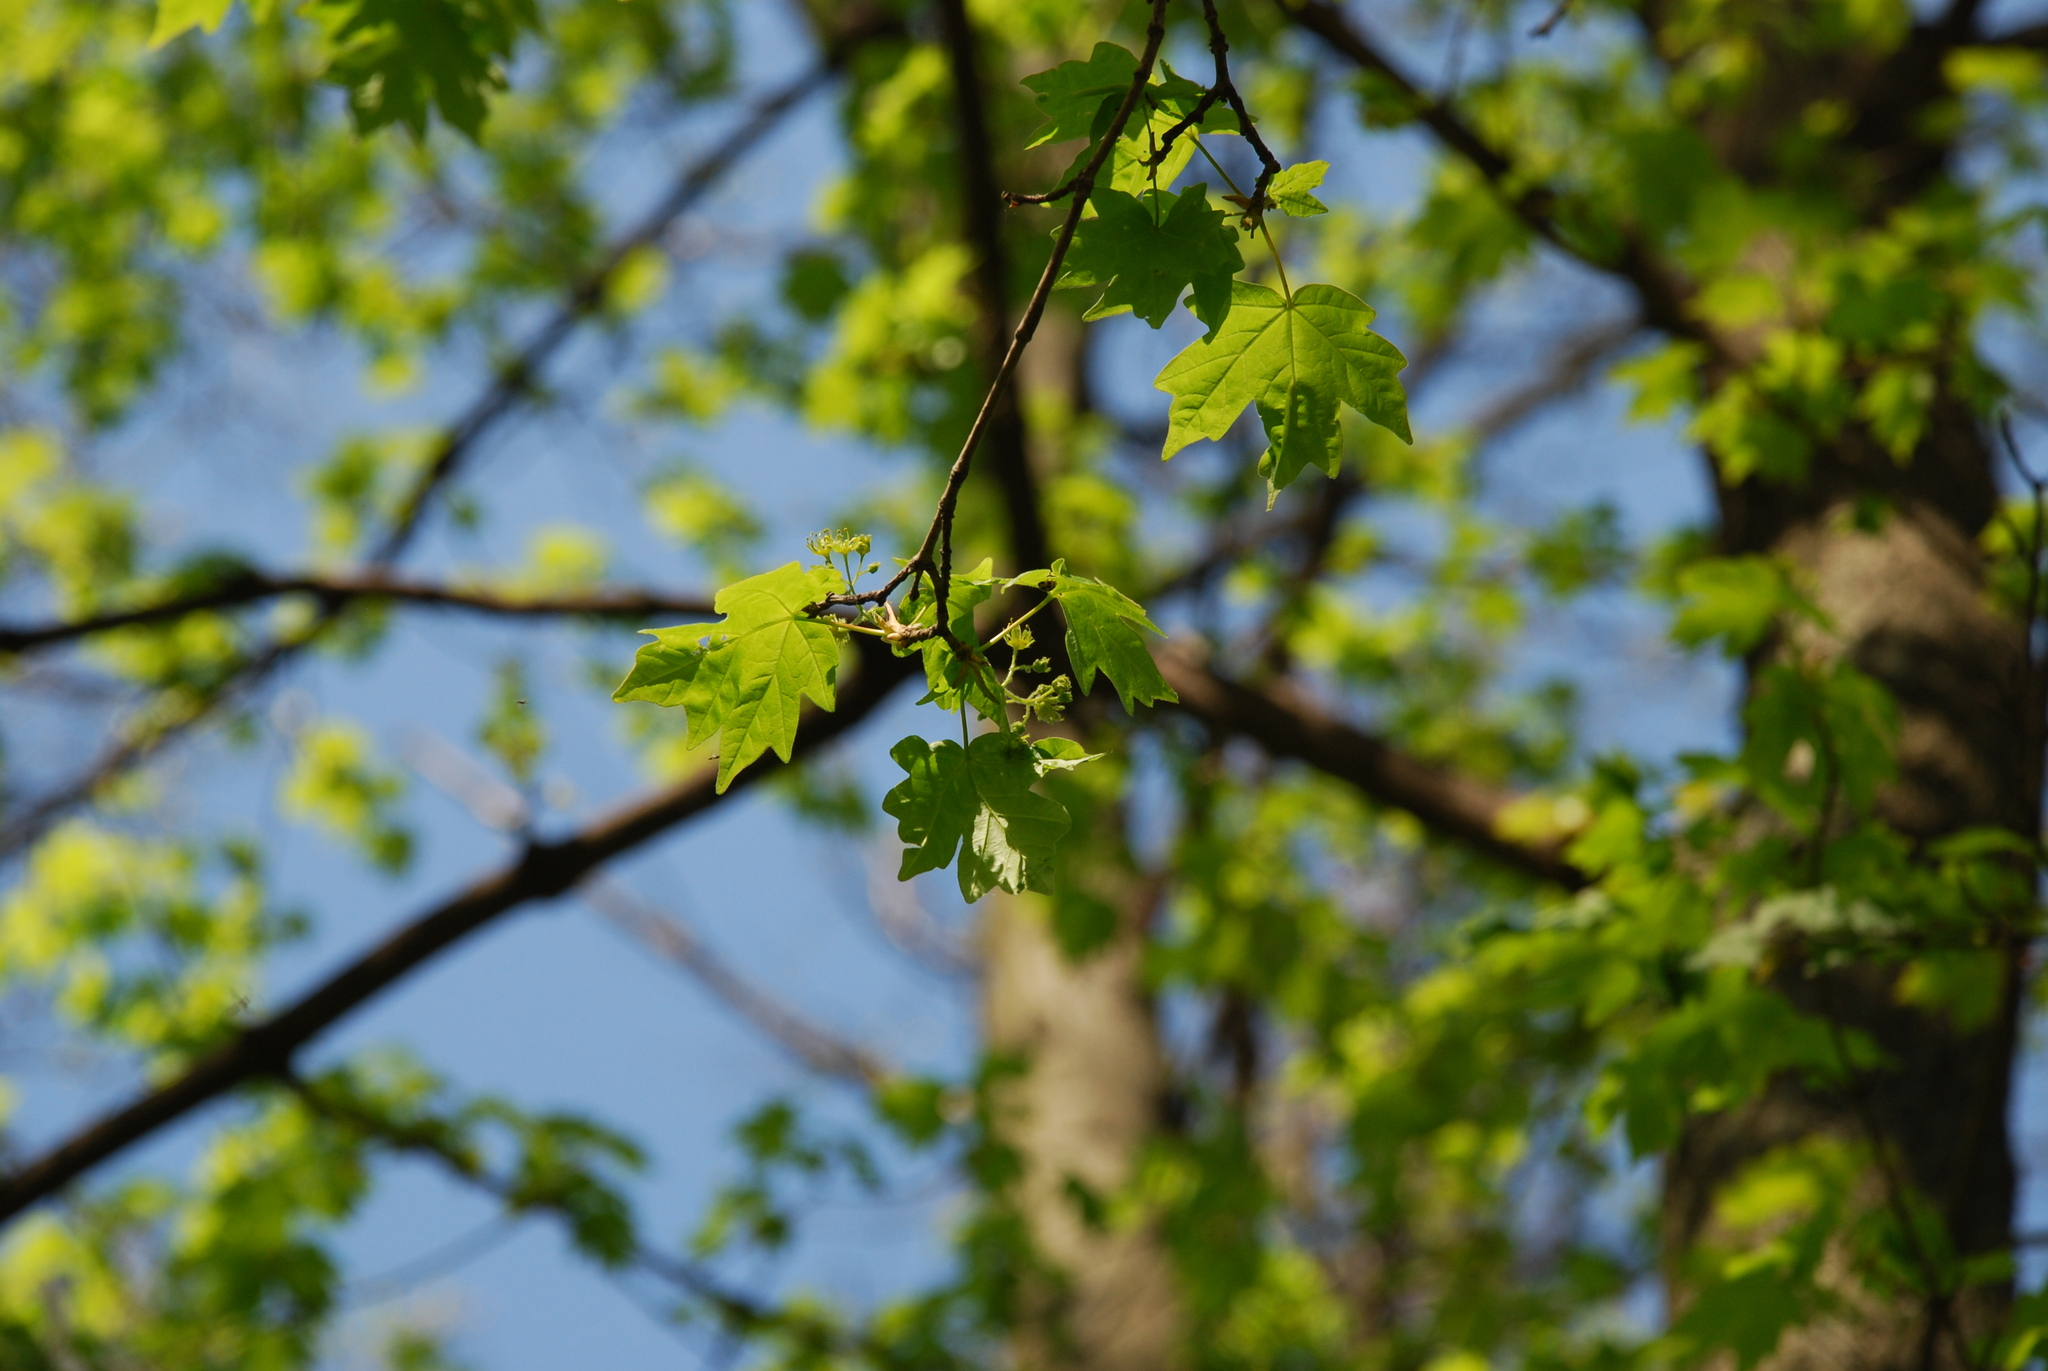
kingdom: Plantae
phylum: Tracheophyta
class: Magnoliopsida
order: Sapindales
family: Sapindaceae
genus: Acer
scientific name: Acer campestre
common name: Field maple
